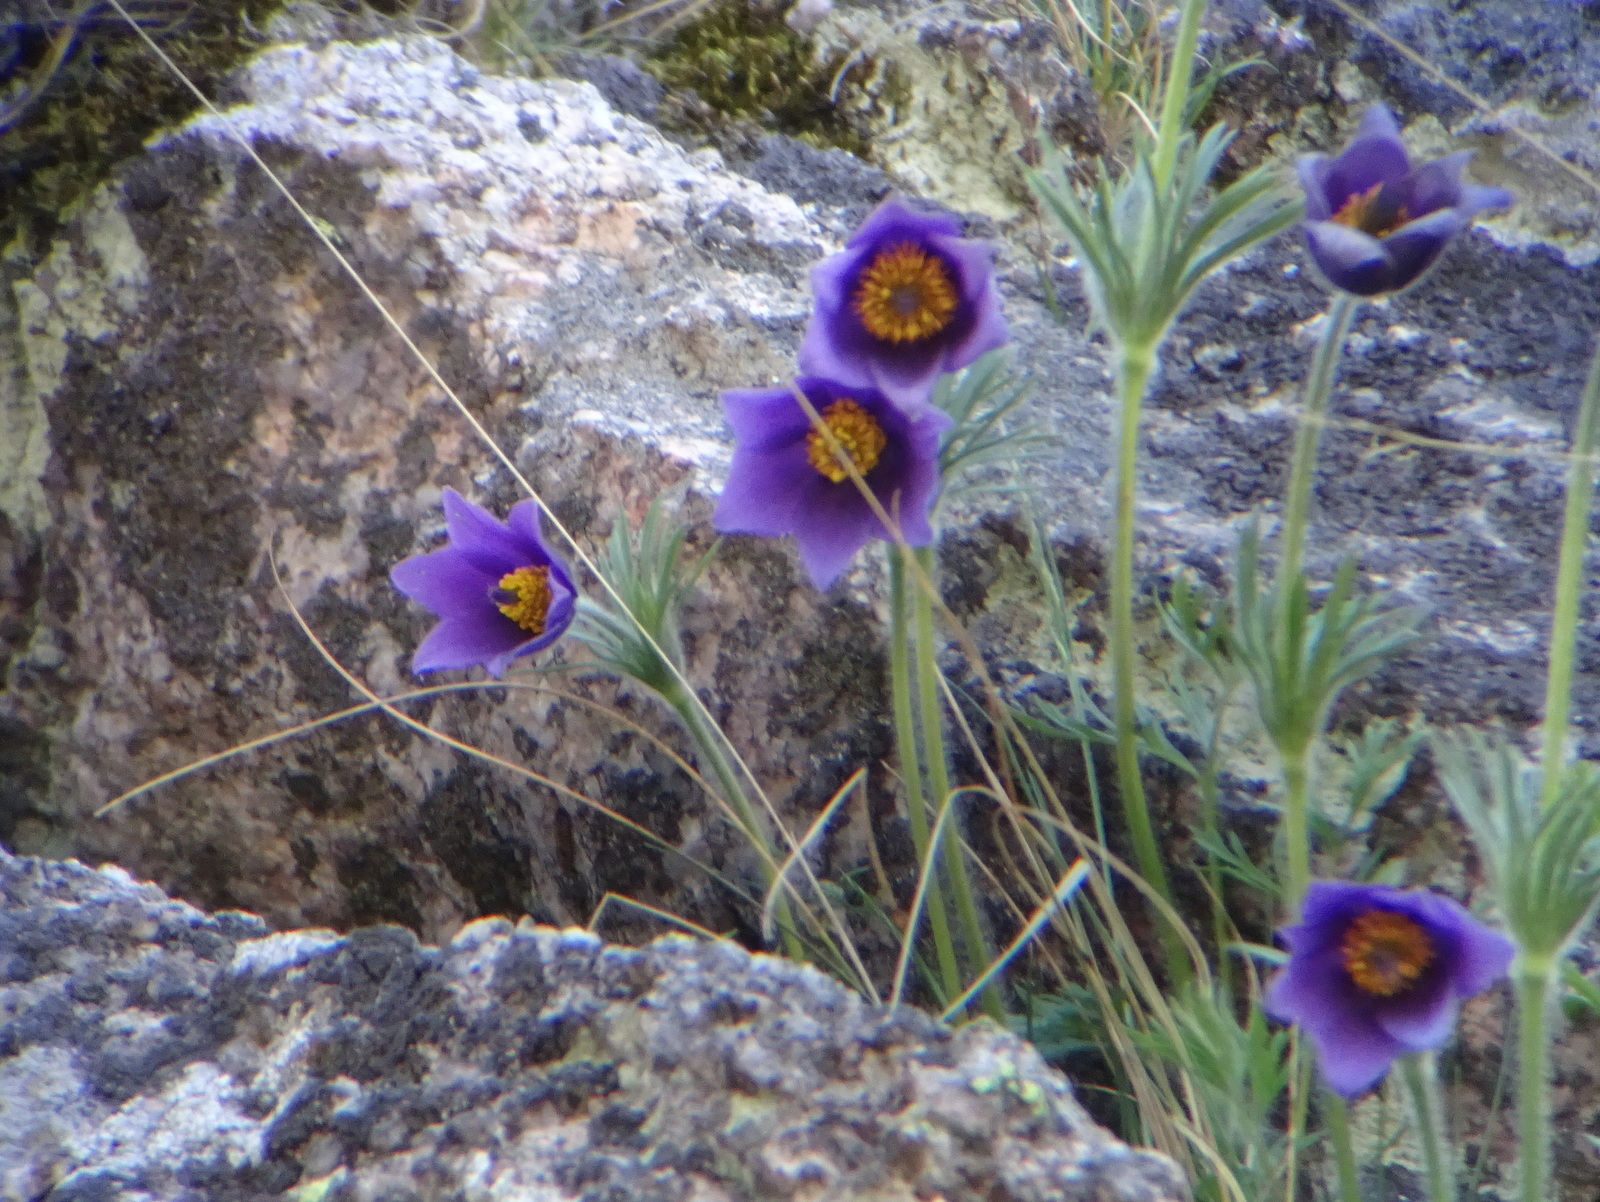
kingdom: Plantae
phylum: Tracheophyta
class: Magnoliopsida
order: Ranunculales
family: Ranunculaceae
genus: Pulsatilla
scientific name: Pulsatilla vulgaris
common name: Pasqueflower
